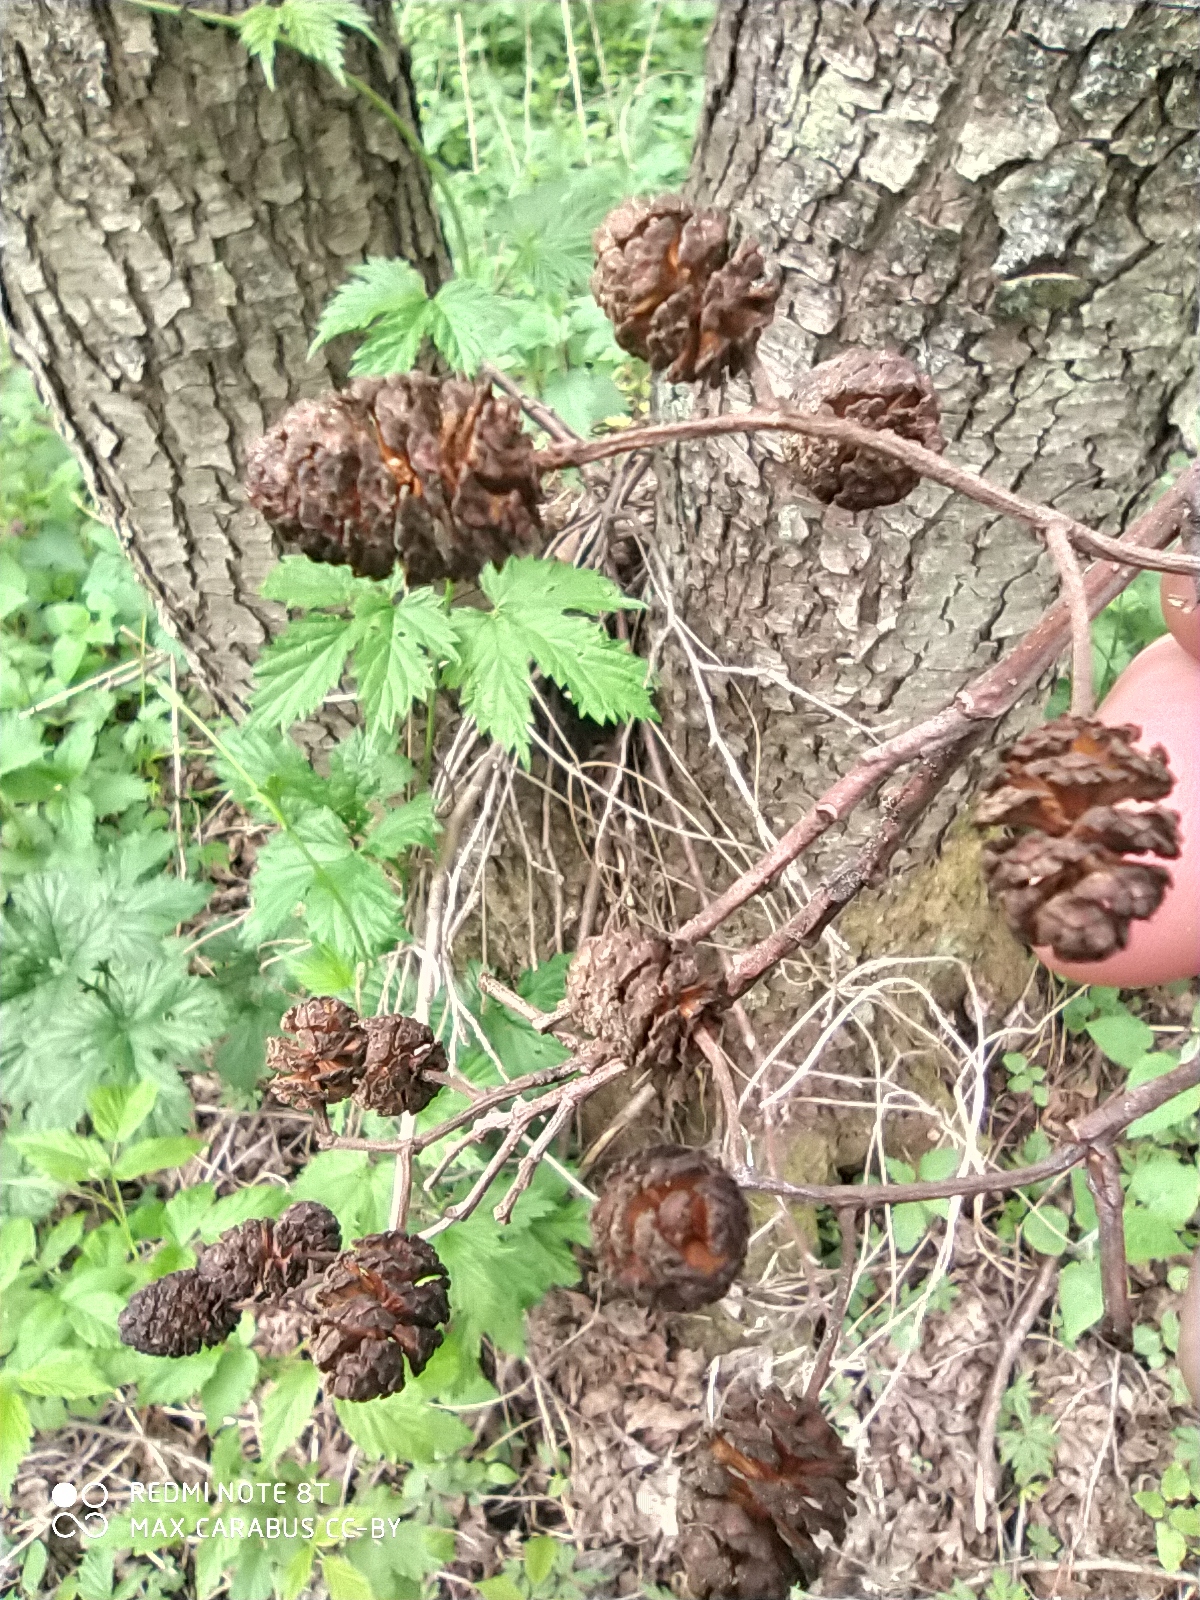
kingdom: Plantae
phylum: Tracheophyta
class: Magnoliopsida
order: Fagales
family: Betulaceae
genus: Alnus
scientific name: Alnus glutinosa
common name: Black alder
